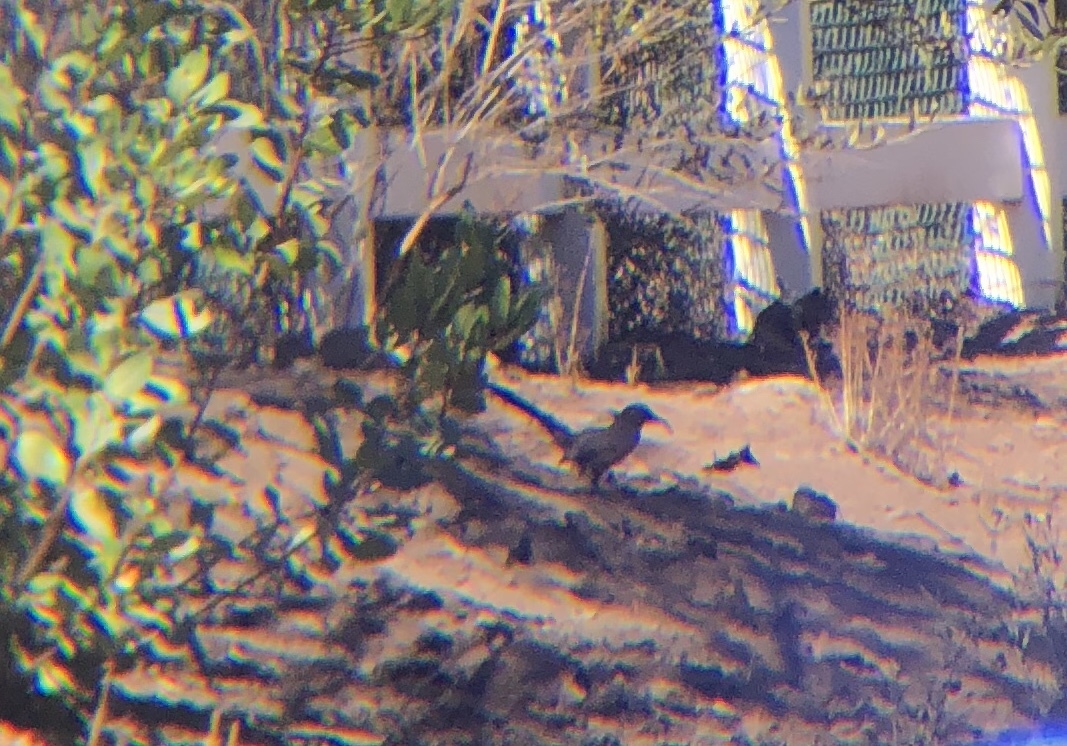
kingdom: Animalia
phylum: Chordata
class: Aves
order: Passeriformes
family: Mimidae
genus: Toxostoma
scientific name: Toxostoma redivivum
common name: California thrasher
